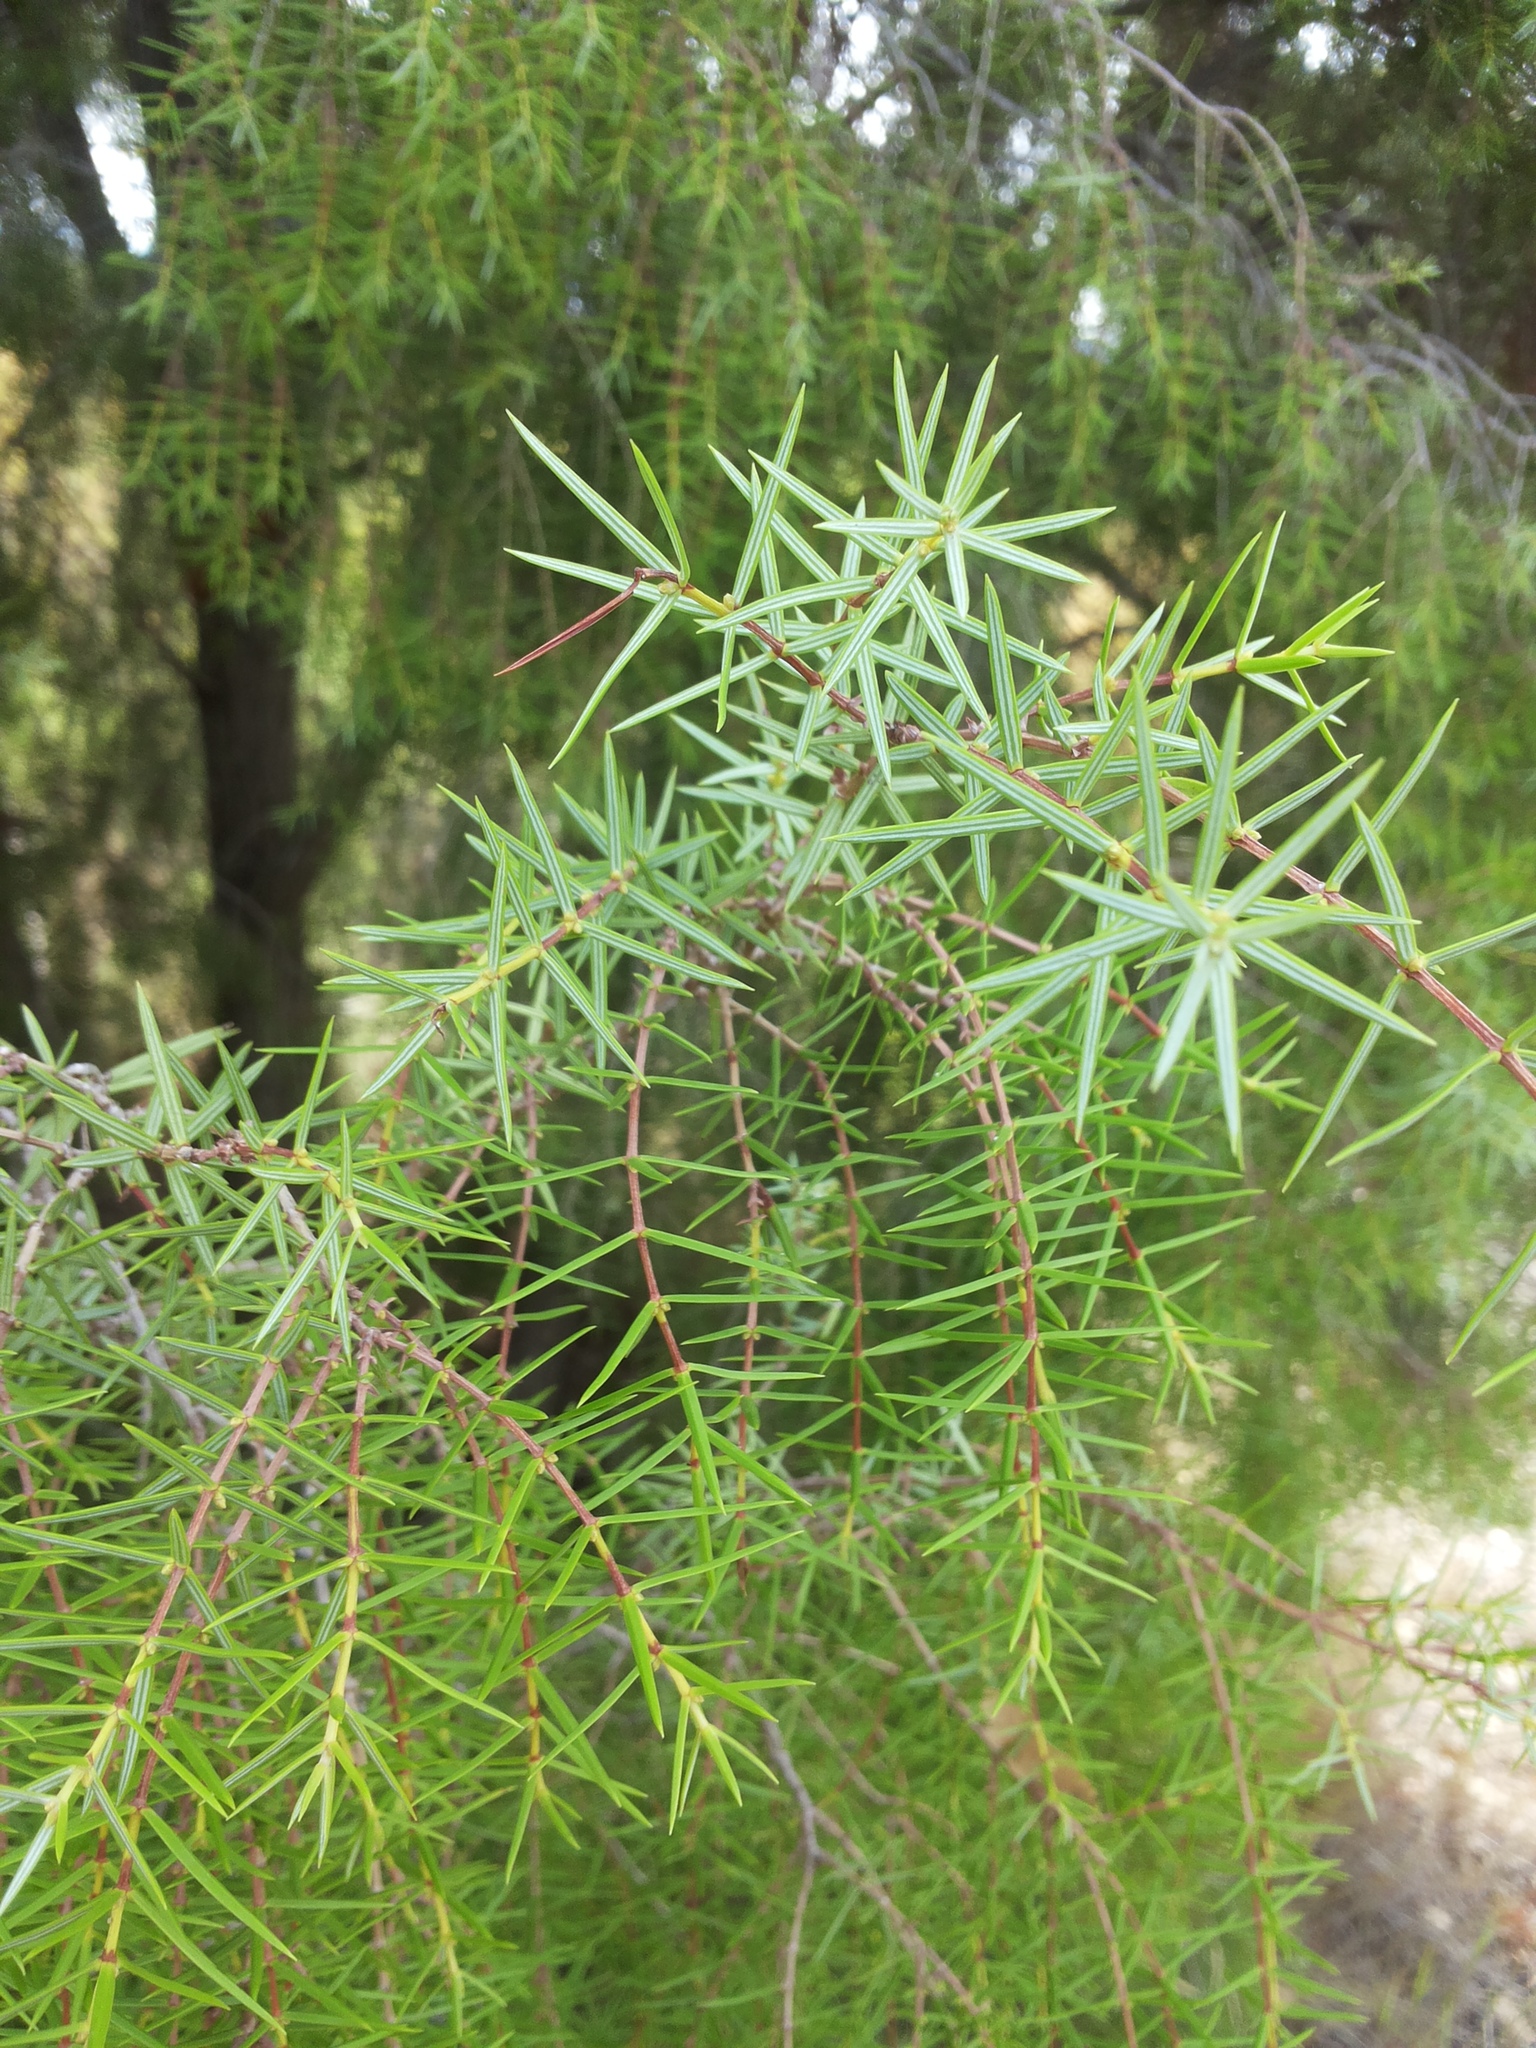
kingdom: Plantae
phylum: Tracheophyta
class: Pinopsida
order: Pinales
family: Cupressaceae
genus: Juniperus
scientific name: Juniperus oxycedrus
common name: Prickly juniper
